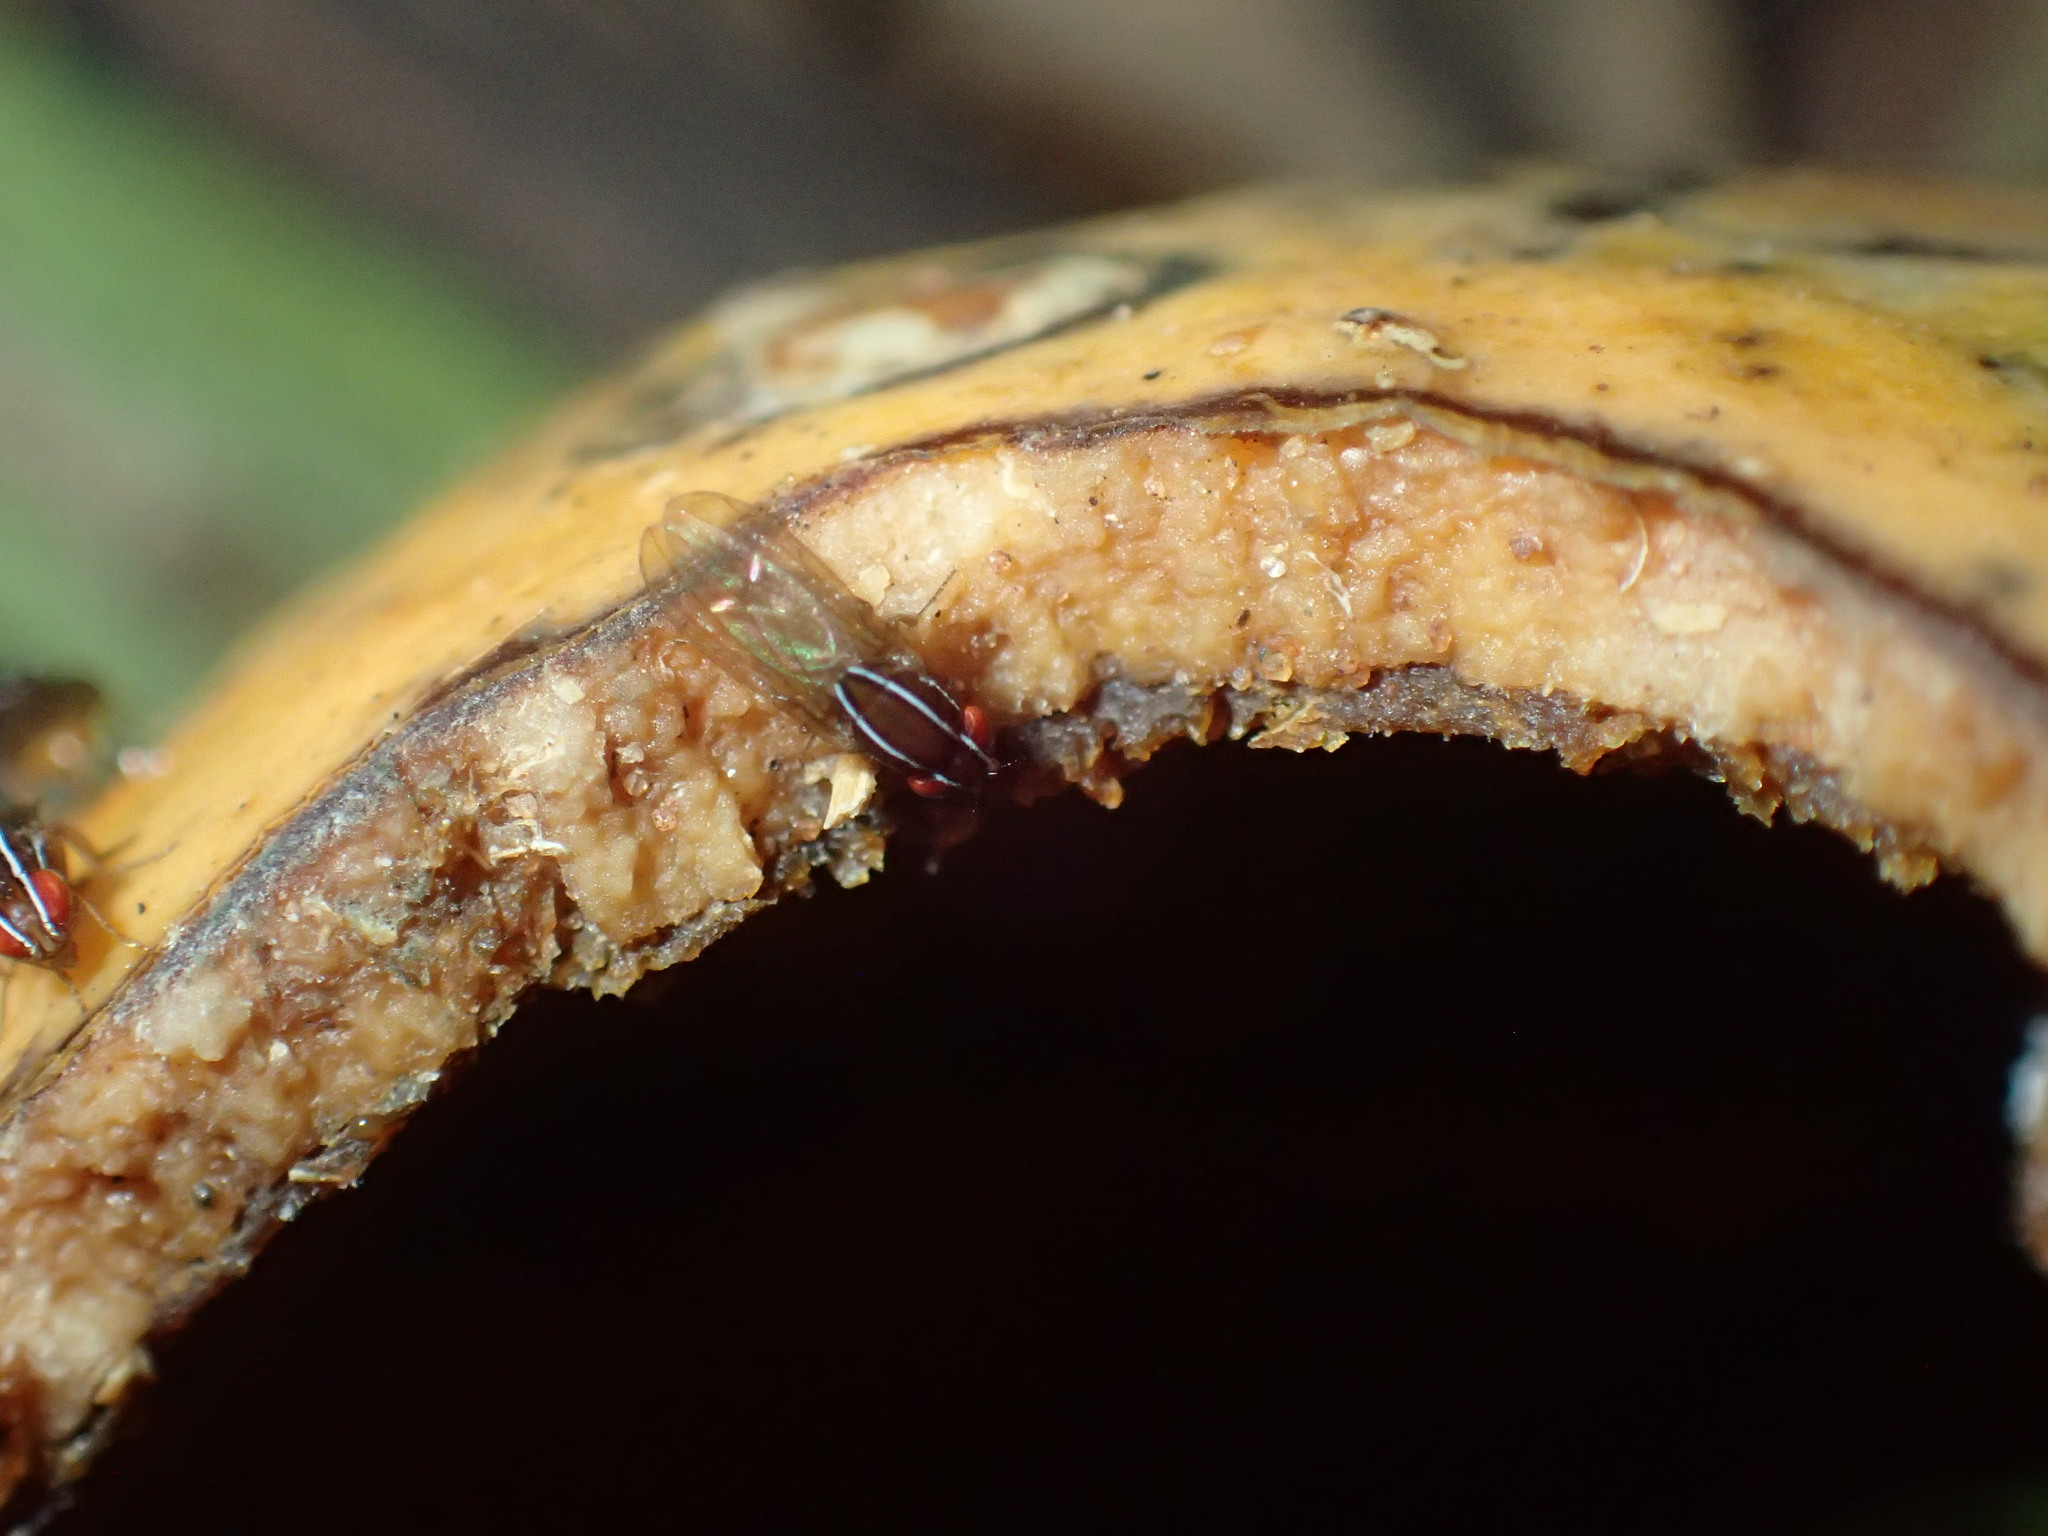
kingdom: Animalia
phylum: Arthropoda
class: Insecta
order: Diptera
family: Drosophilidae
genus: Zaprionus
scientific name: Zaprionus indianus
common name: African fig fly
